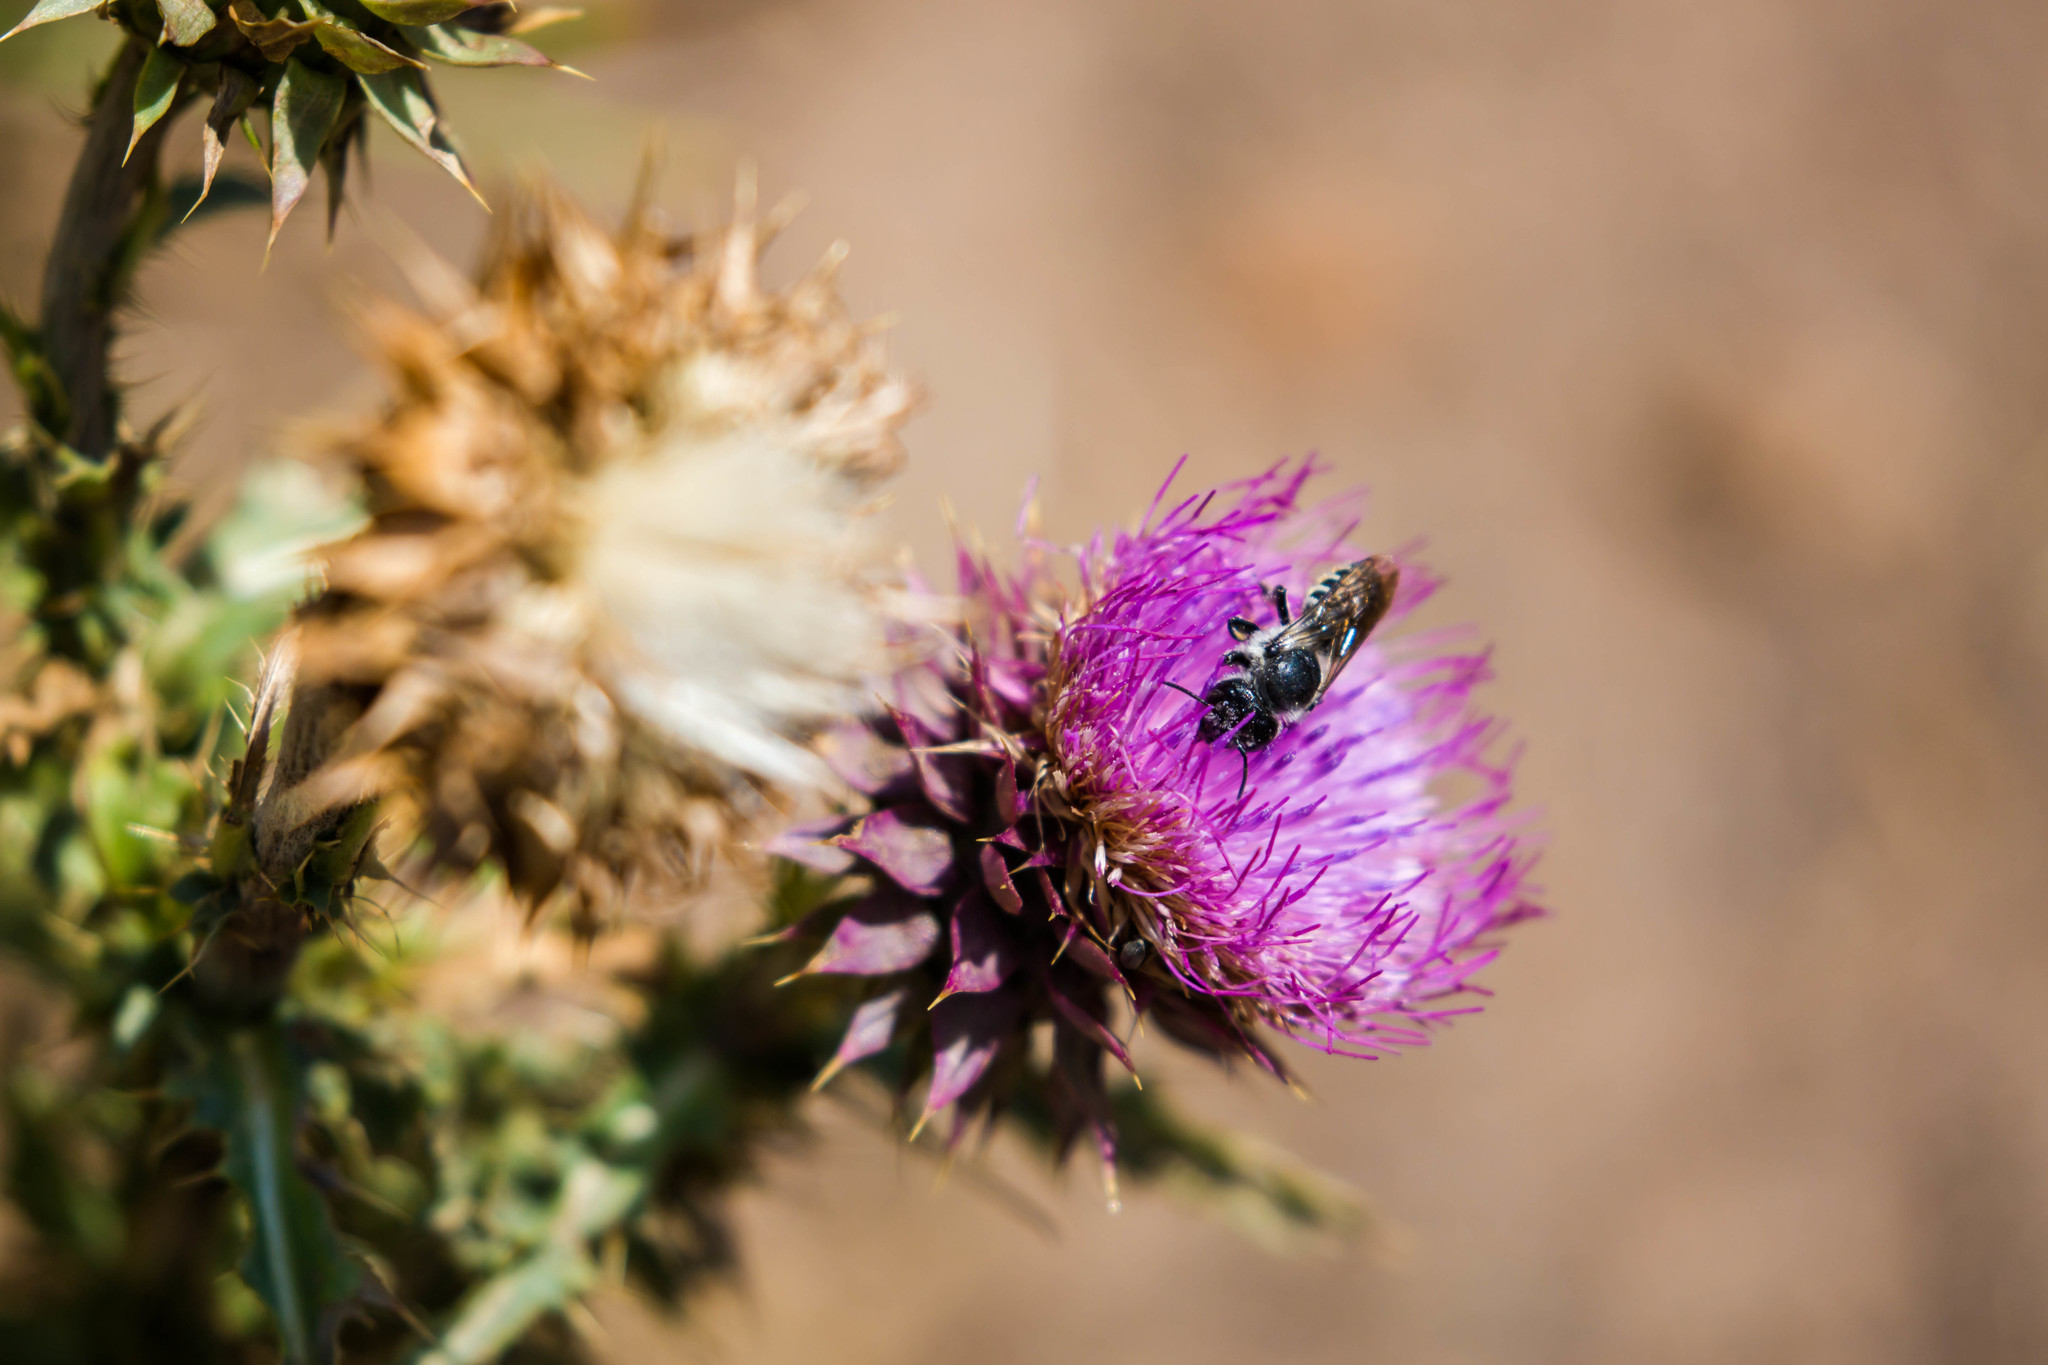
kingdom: Animalia
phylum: Arthropoda
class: Insecta
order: Hymenoptera
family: Megachilidae
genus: Megachile
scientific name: Megachile montivaga
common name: Silver-tailed petalcutter bee
